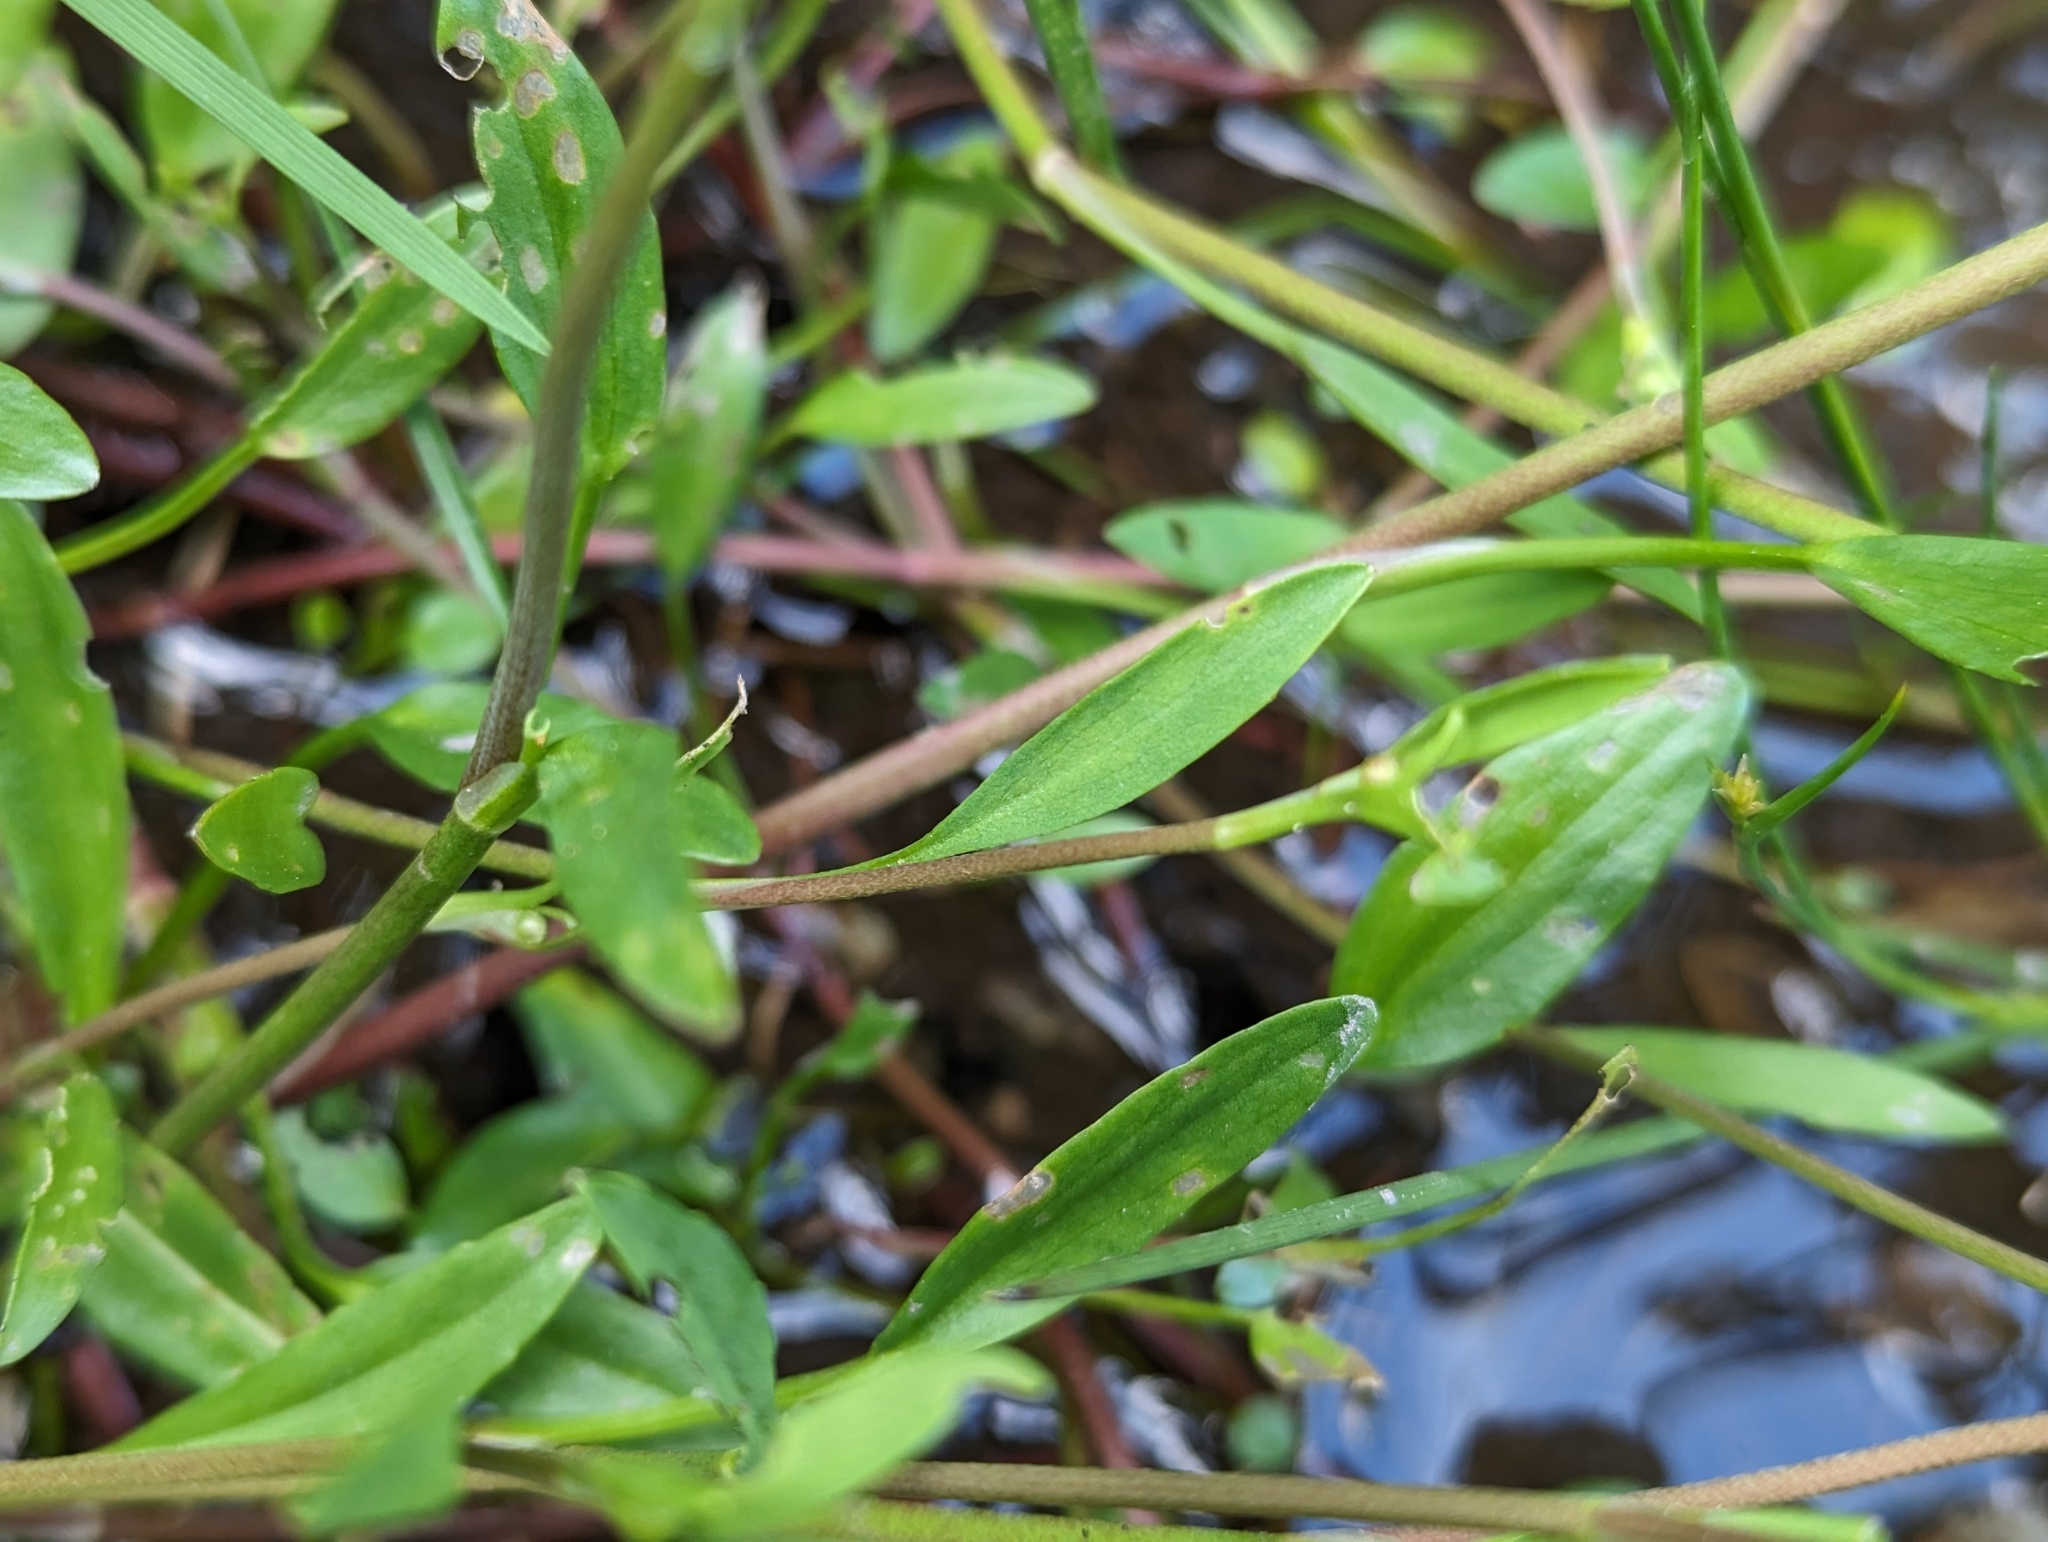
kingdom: Plantae
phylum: Tracheophyta
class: Magnoliopsida
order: Ranunculales
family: Ranunculaceae
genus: Ranunculus
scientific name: Ranunculus flammula
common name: Lesser spearwort
